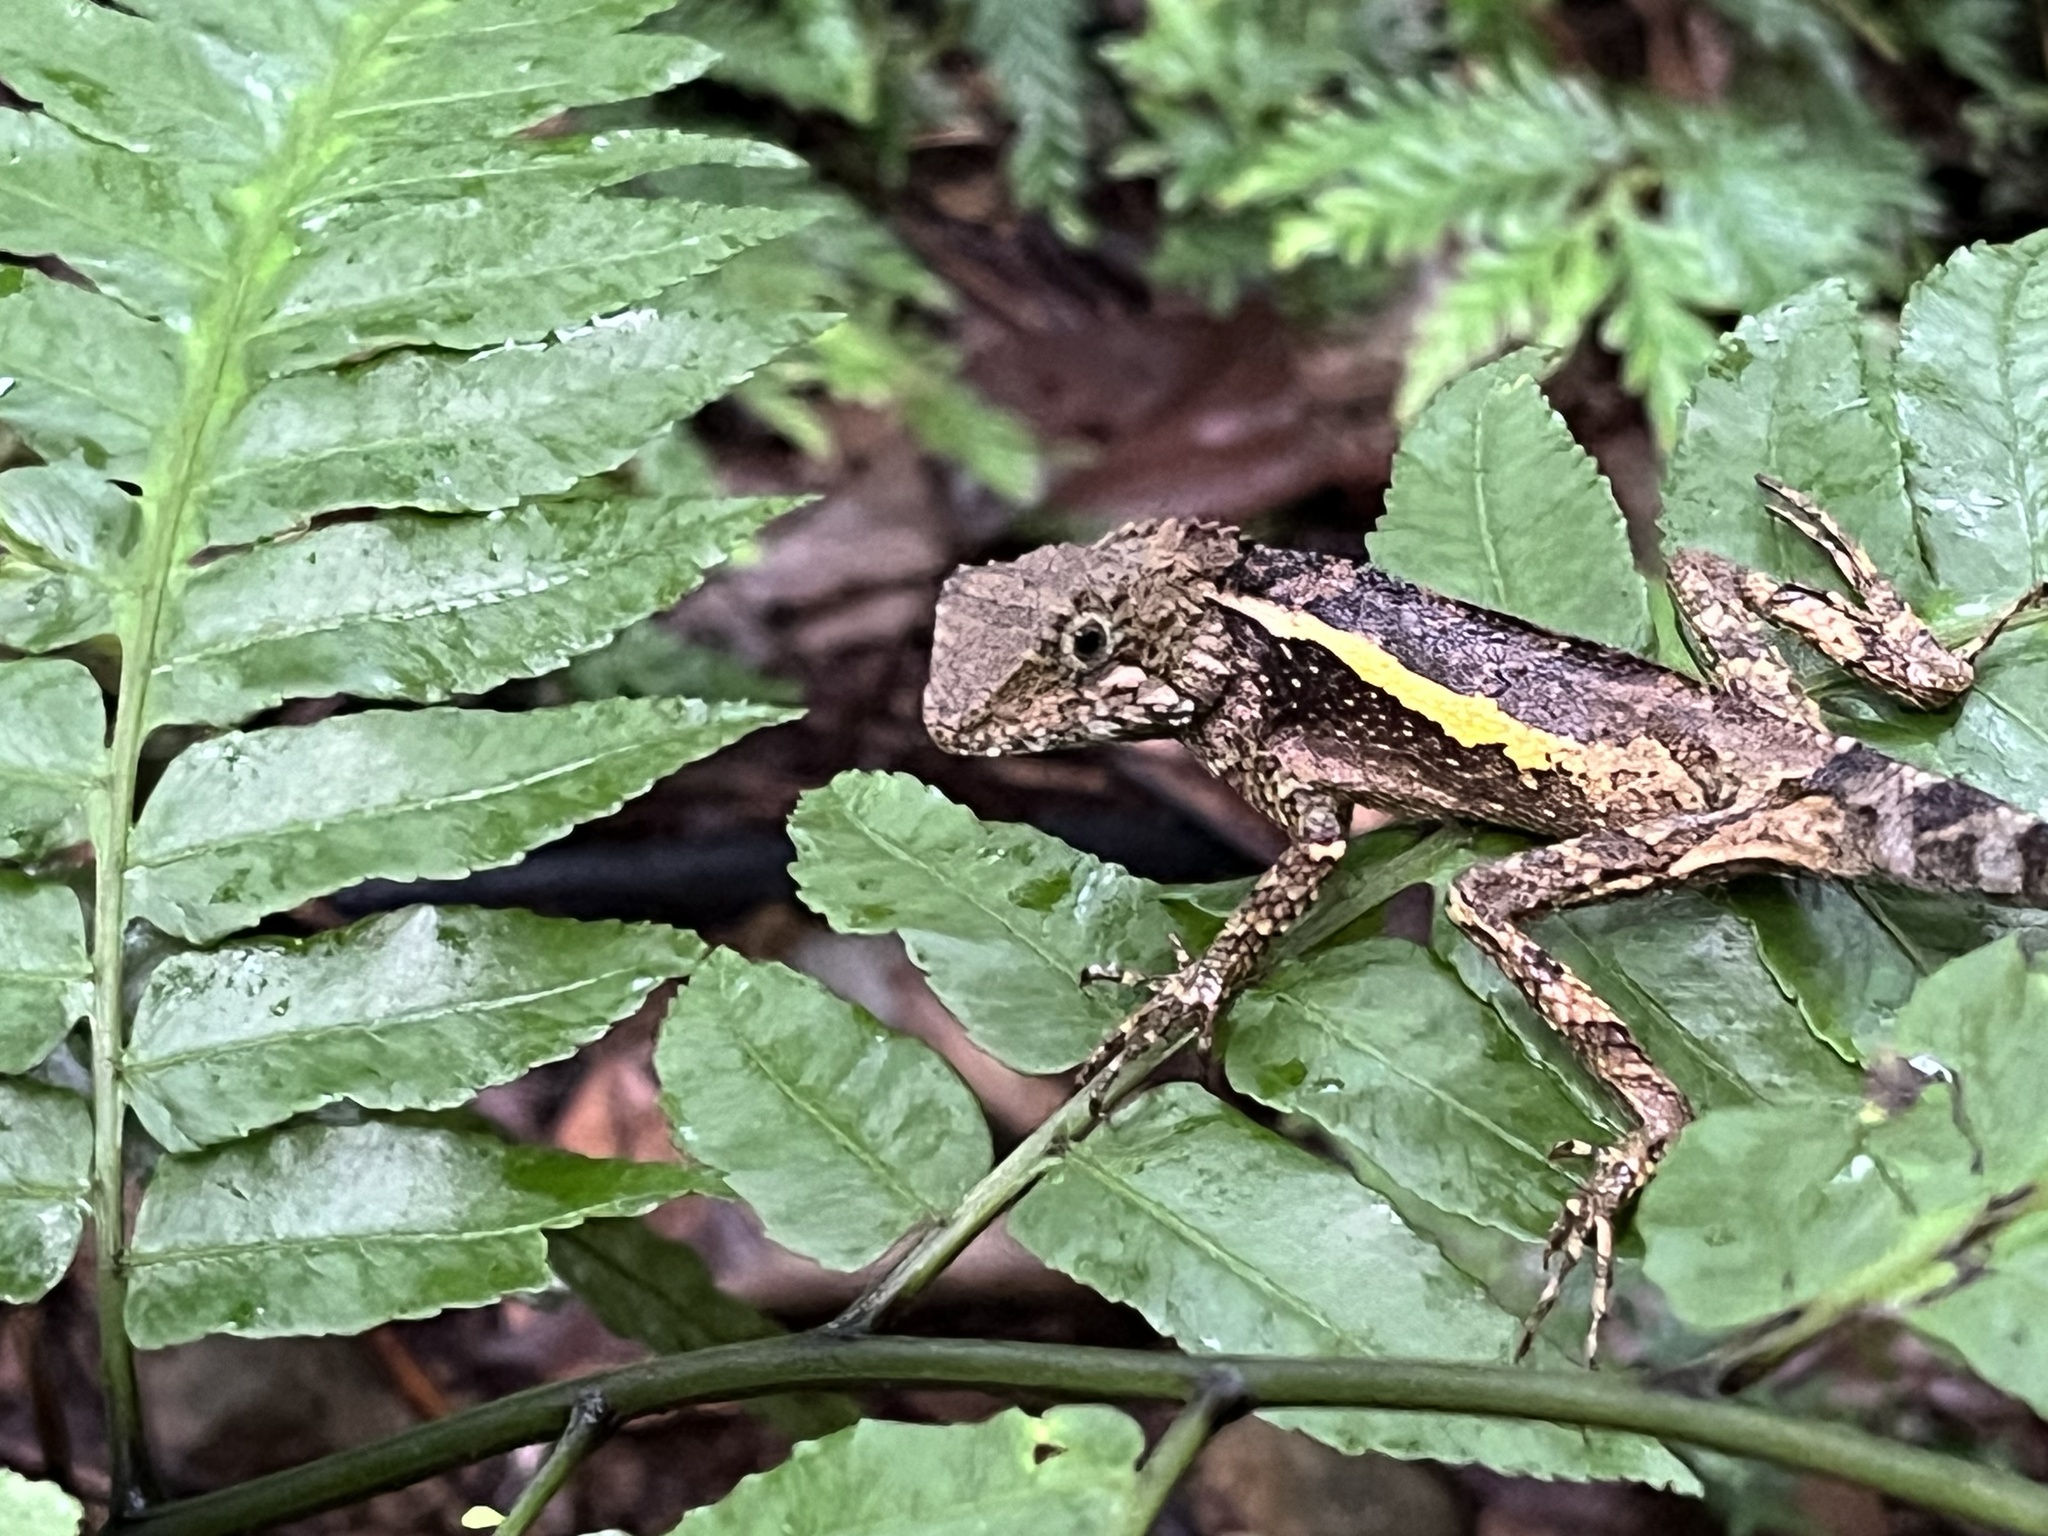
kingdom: Animalia
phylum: Chordata
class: Squamata
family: Agamidae
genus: Diploderma
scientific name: Diploderma swinhonis
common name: Taiwan japalure
